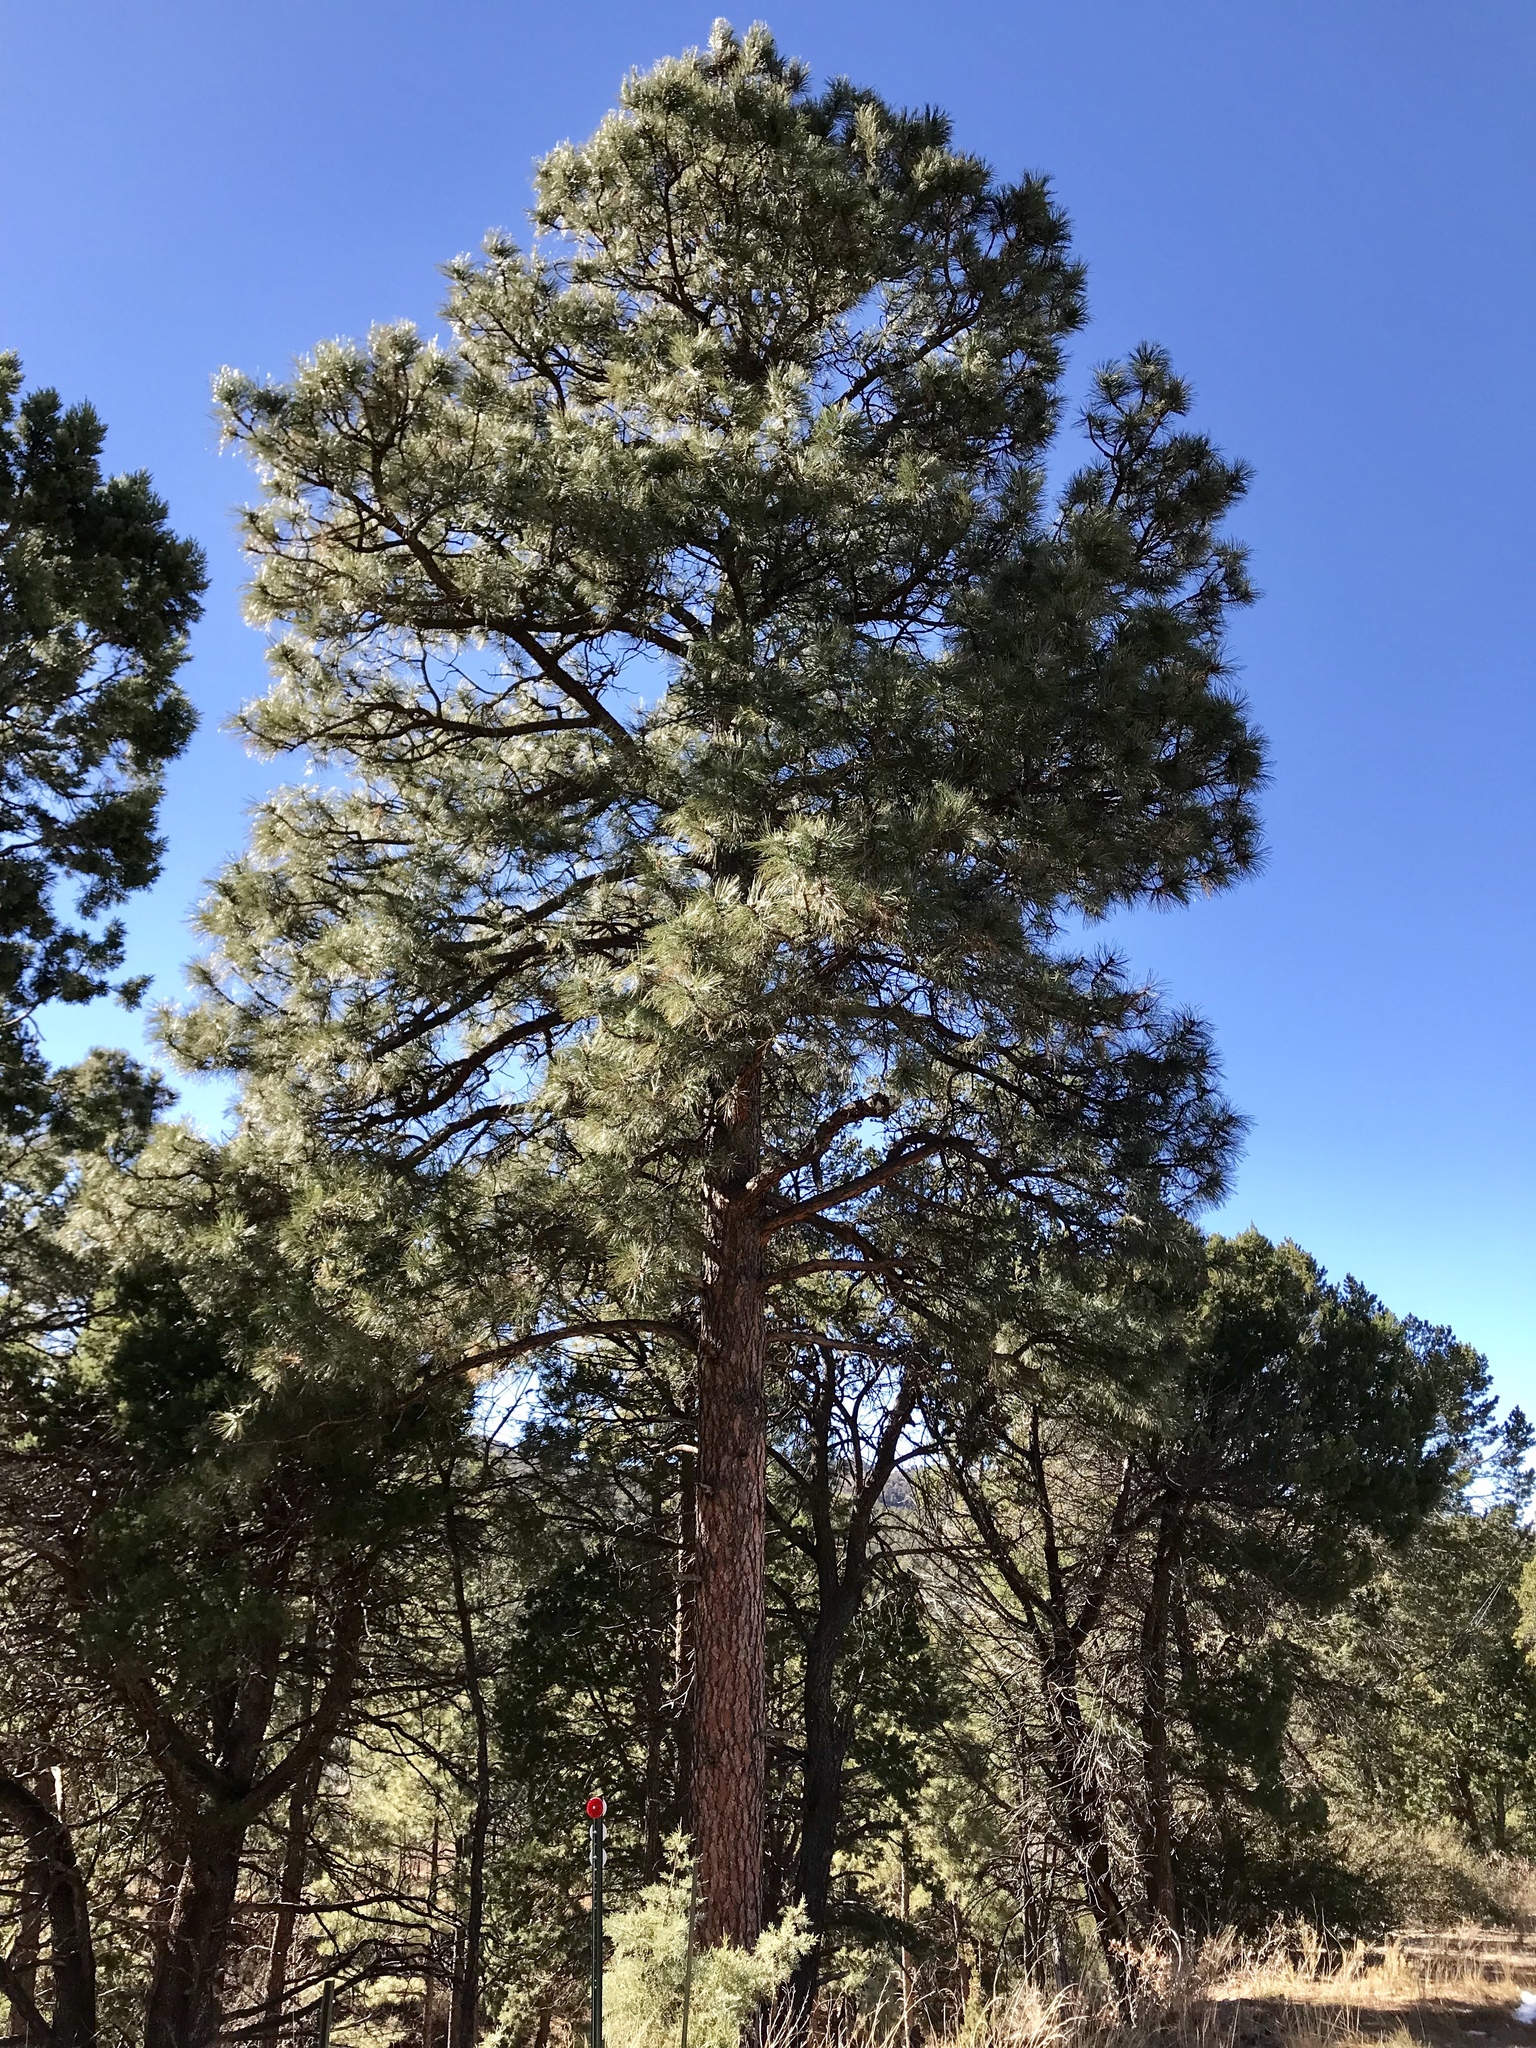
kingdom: Plantae
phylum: Tracheophyta
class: Pinopsida
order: Pinales
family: Pinaceae
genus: Pinus
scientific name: Pinus ponderosa
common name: Western yellow-pine
